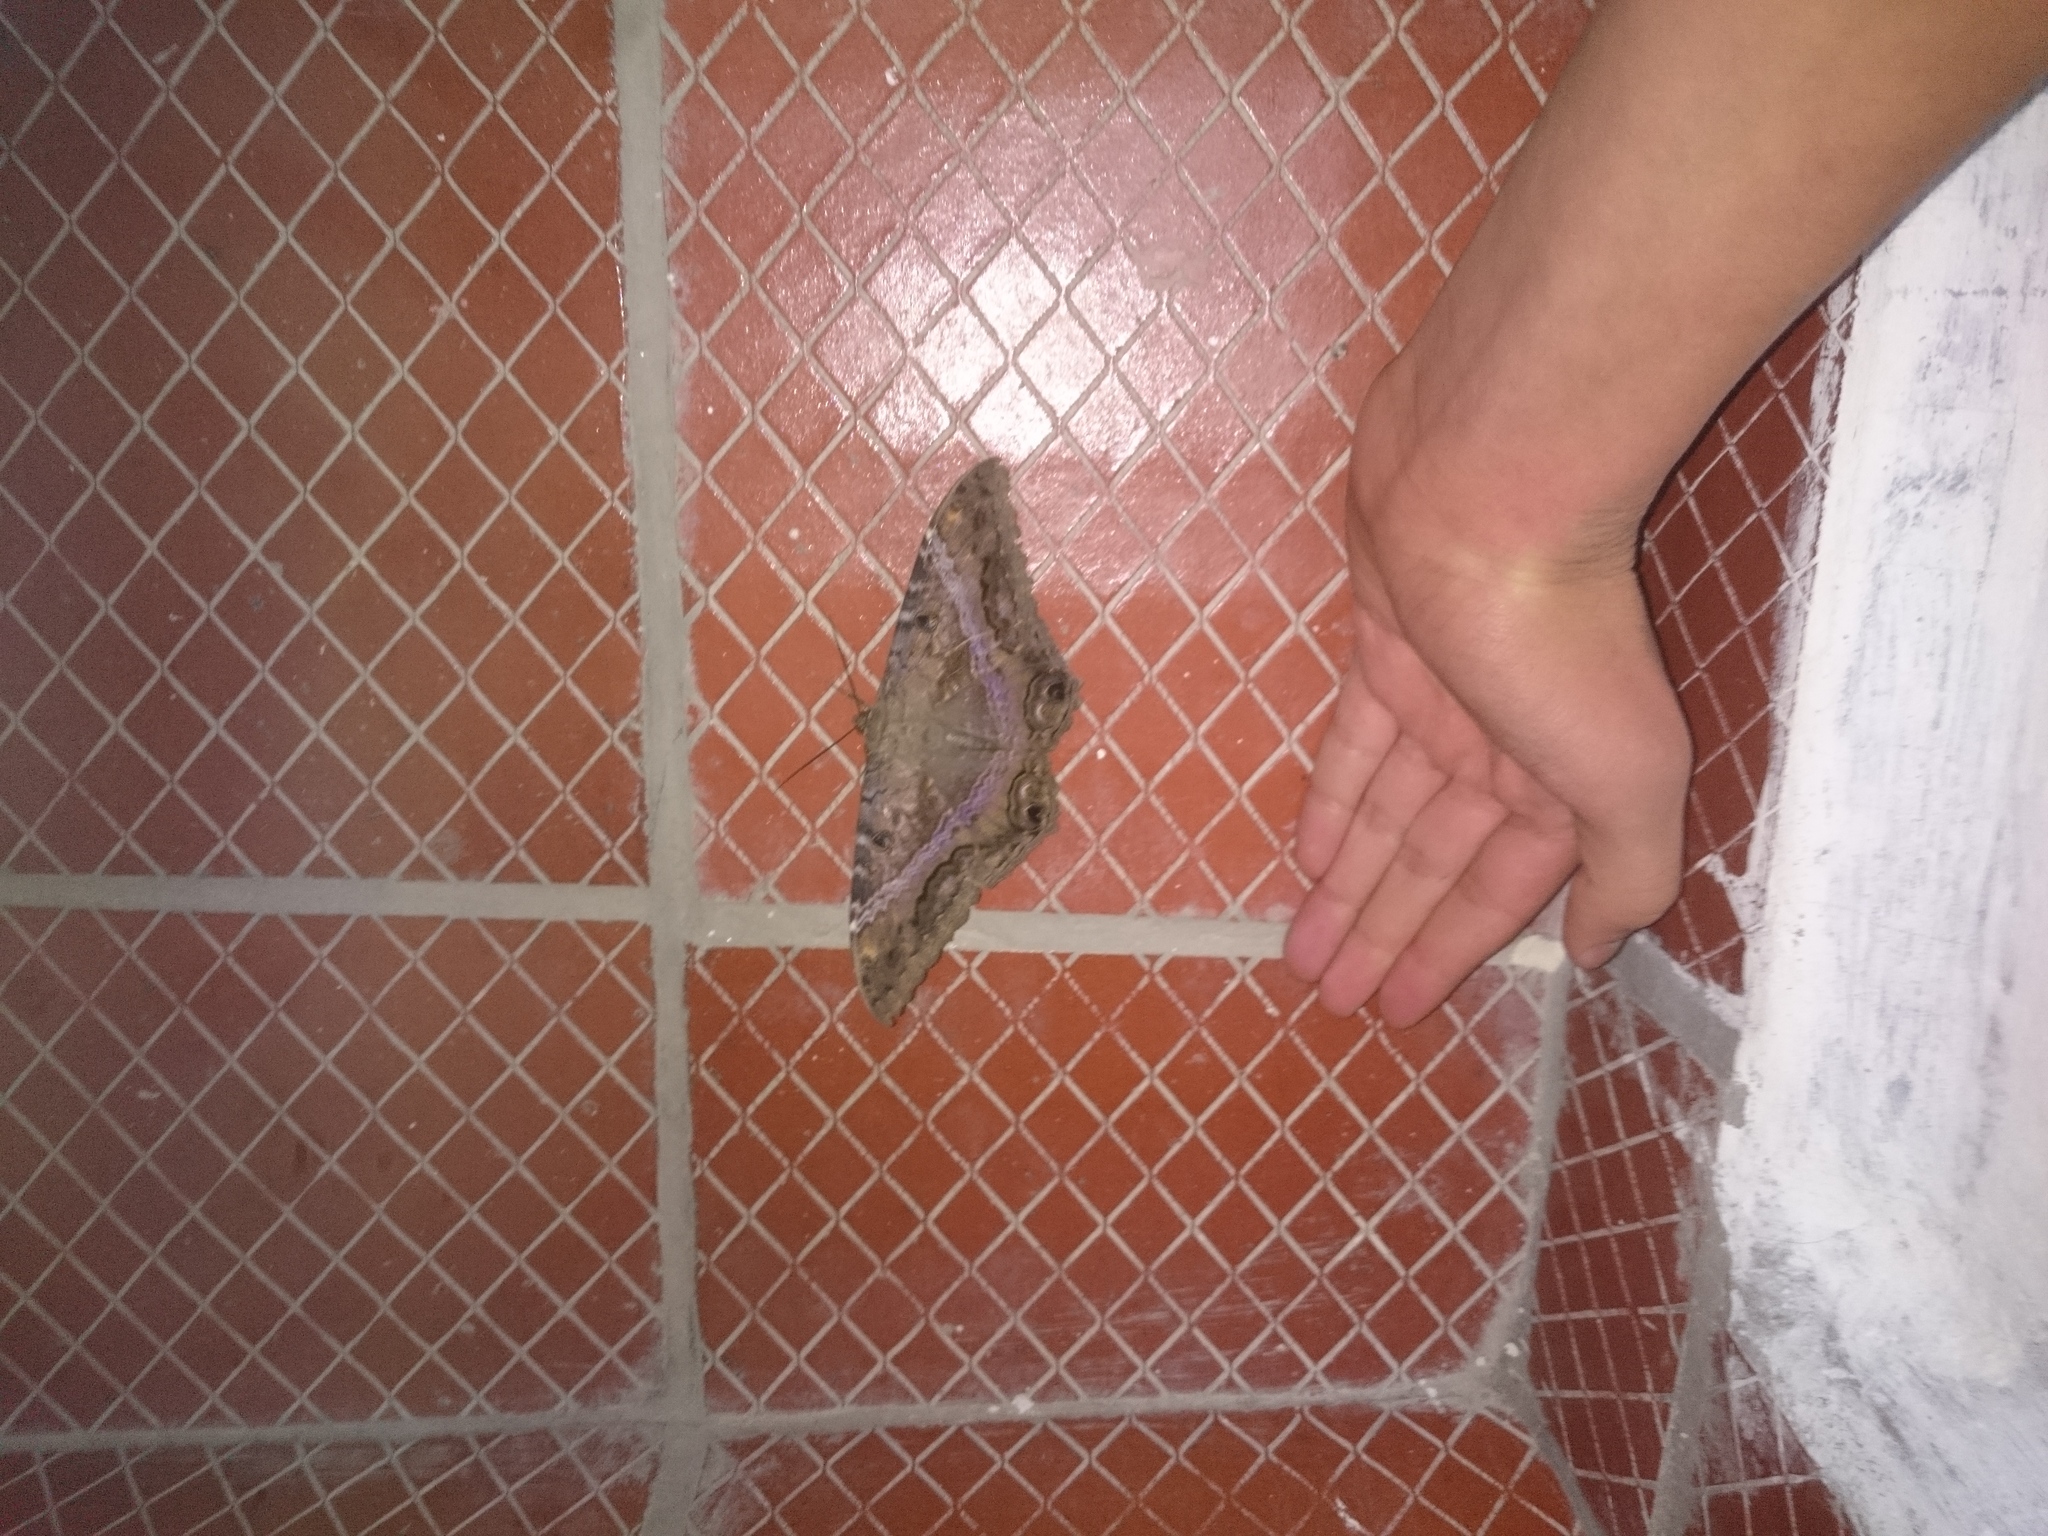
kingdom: Animalia
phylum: Arthropoda
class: Insecta
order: Lepidoptera
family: Erebidae
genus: Ascalapha
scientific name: Ascalapha odorata
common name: Black witch
